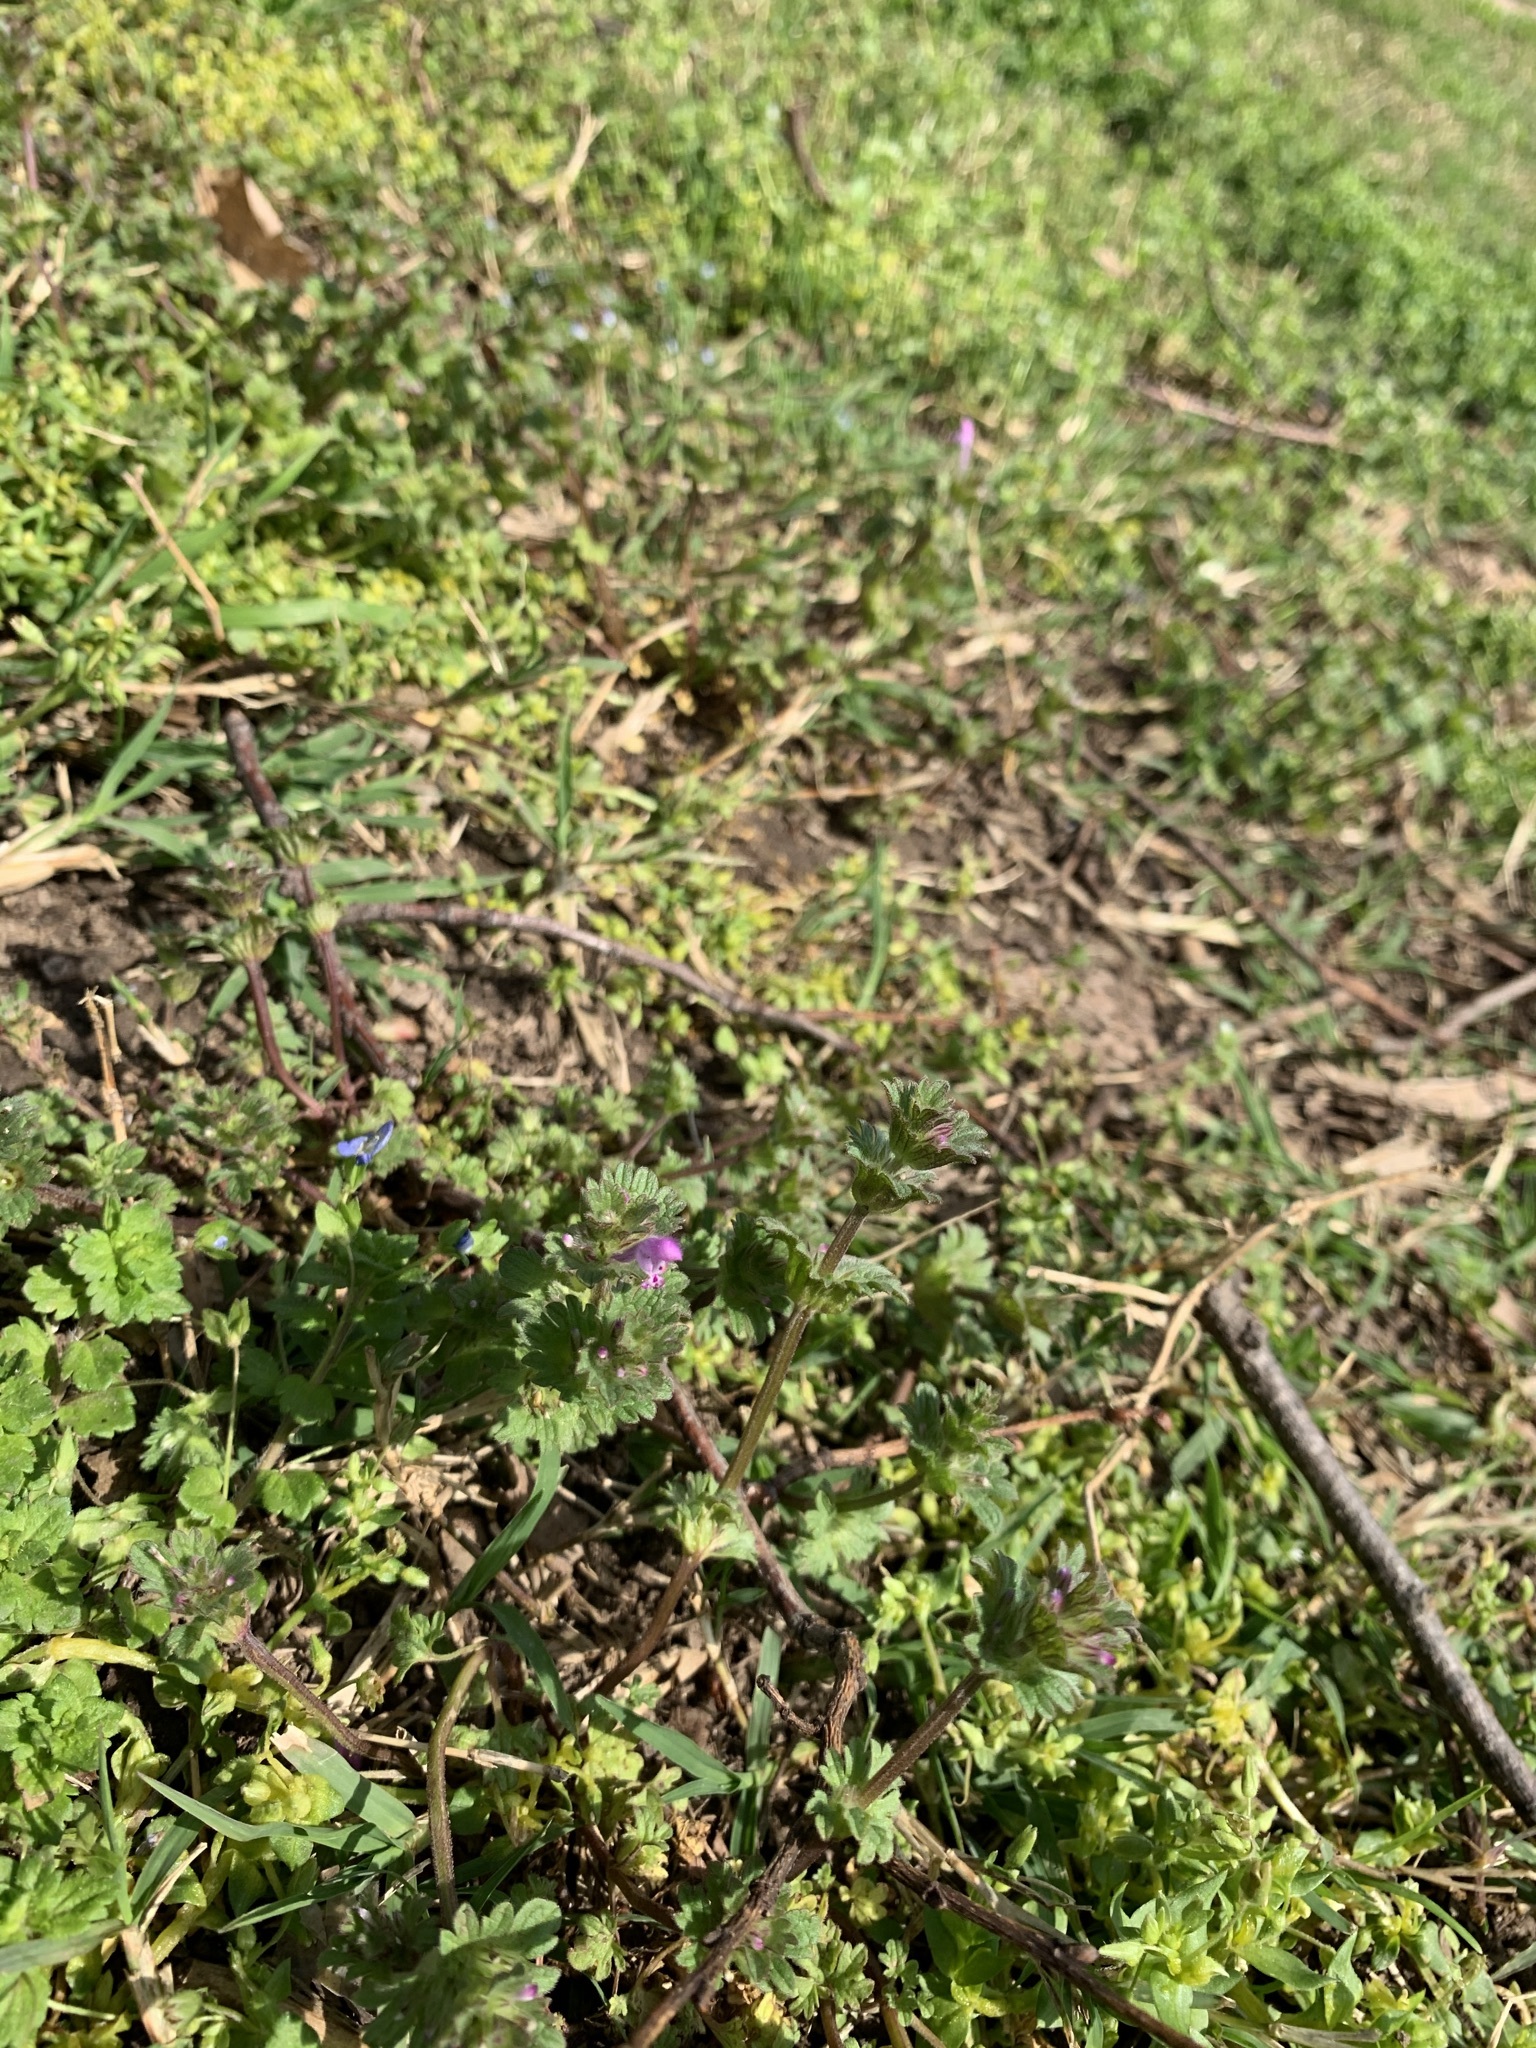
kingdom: Plantae
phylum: Tracheophyta
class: Magnoliopsida
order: Lamiales
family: Lamiaceae
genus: Lamium
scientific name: Lamium amplexicaule
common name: Henbit dead-nettle
